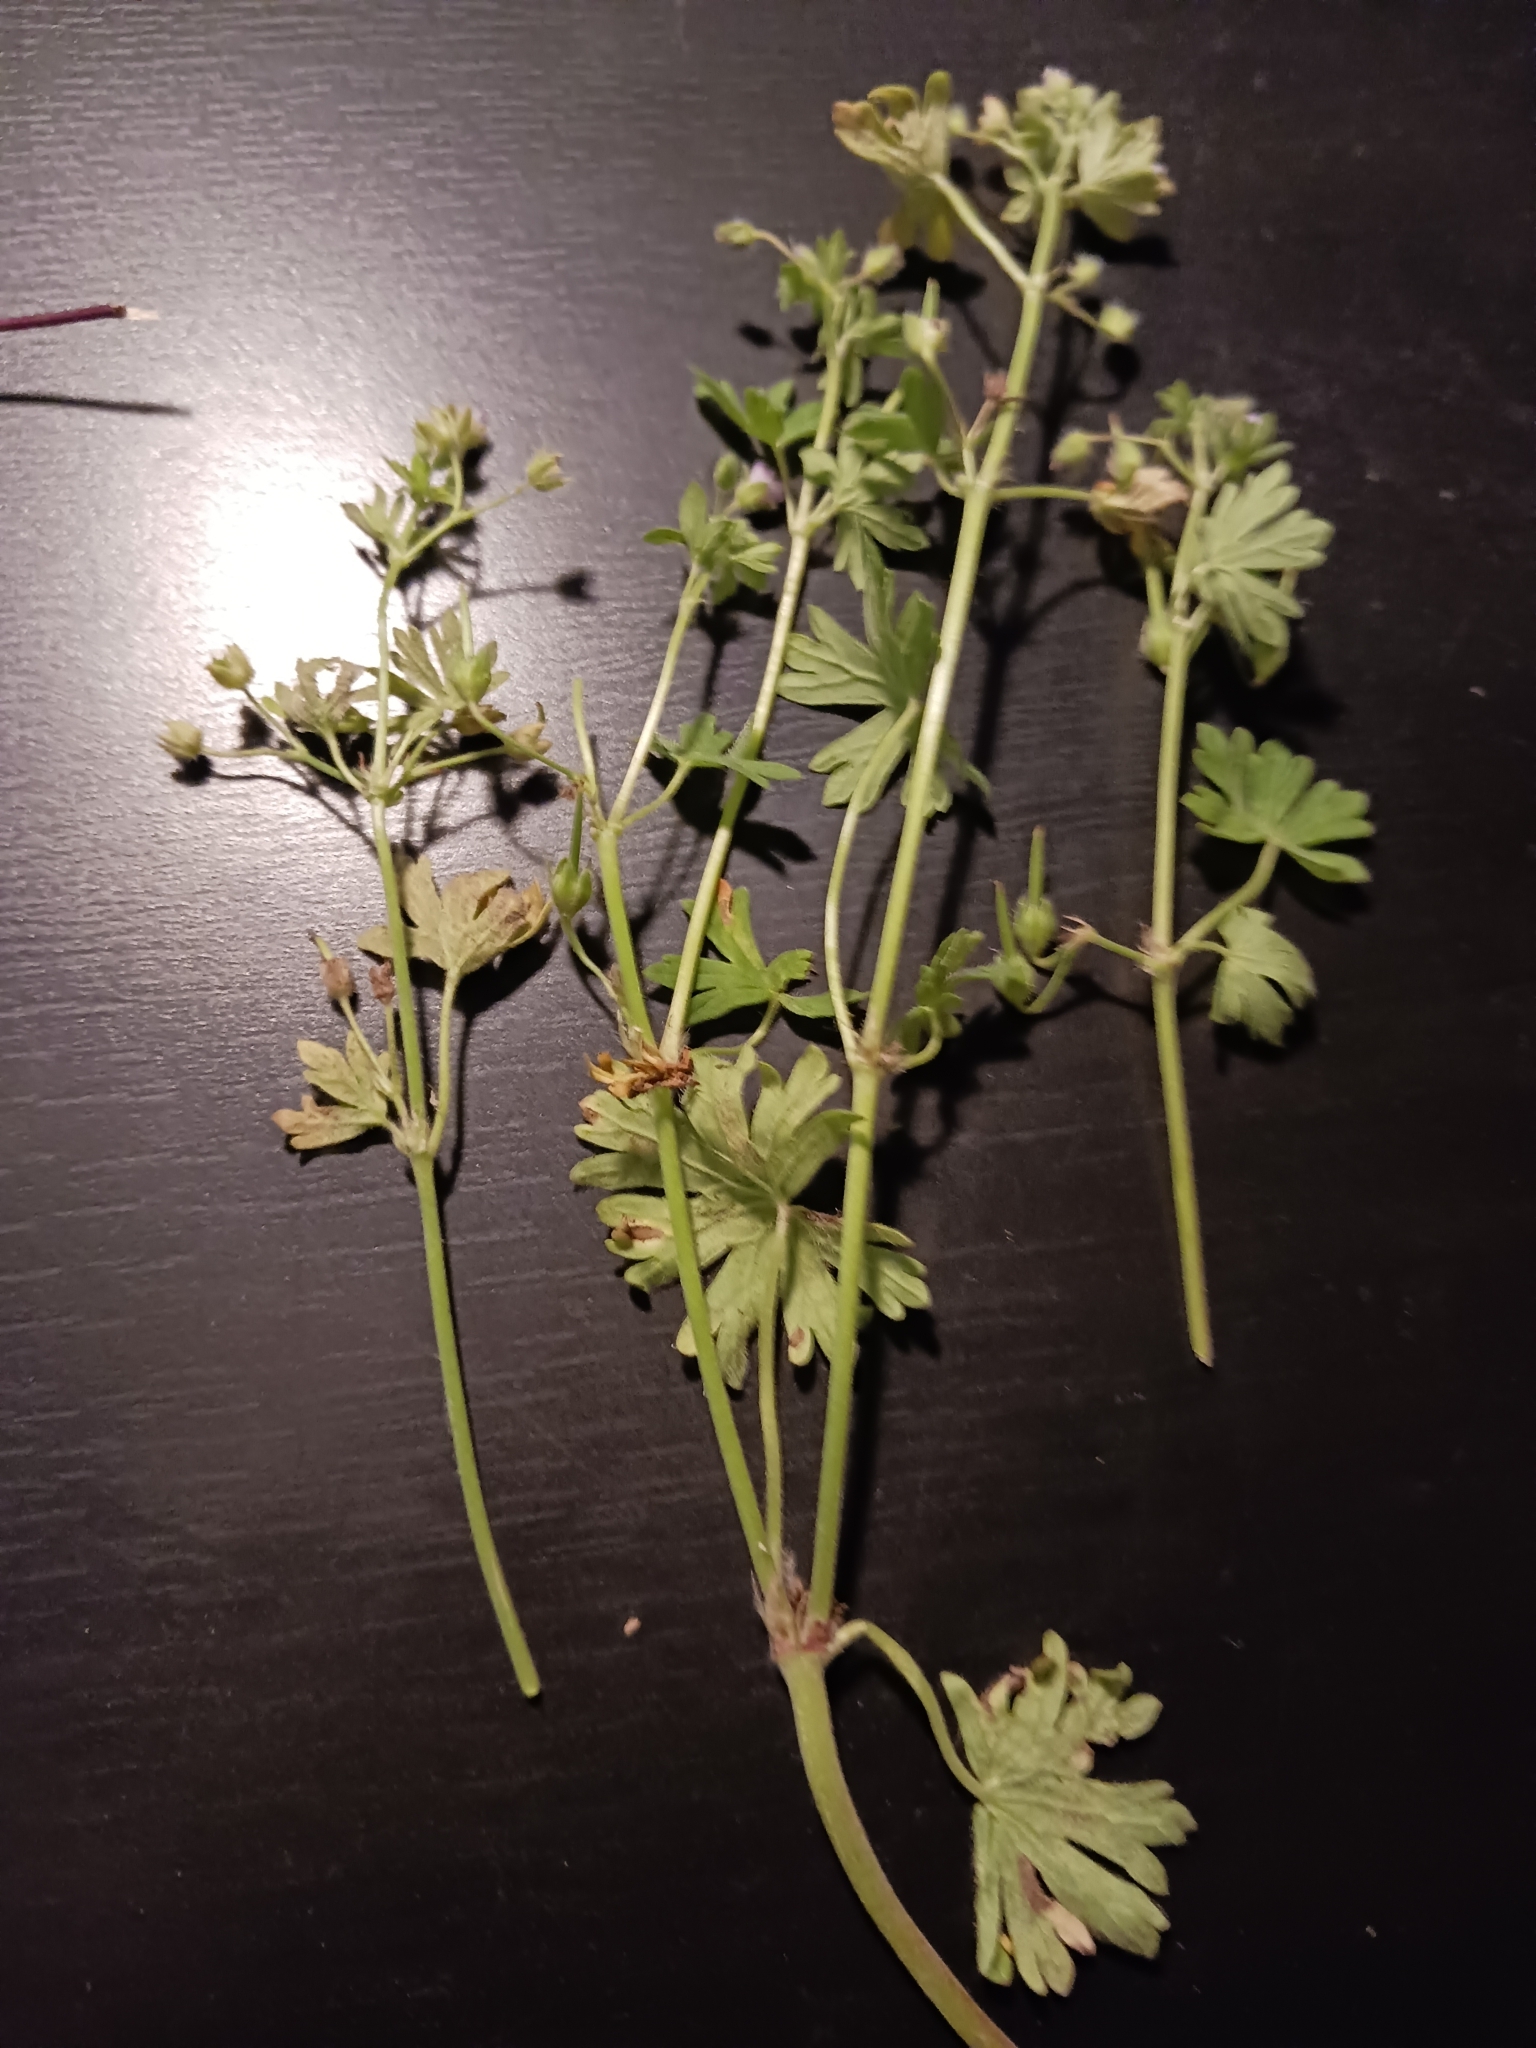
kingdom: Plantae
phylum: Tracheophyta
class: Magnoliopsida
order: Geraniales
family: Geraniaceae
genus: Geranium
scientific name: Geranium pusillum
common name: Small geranium
